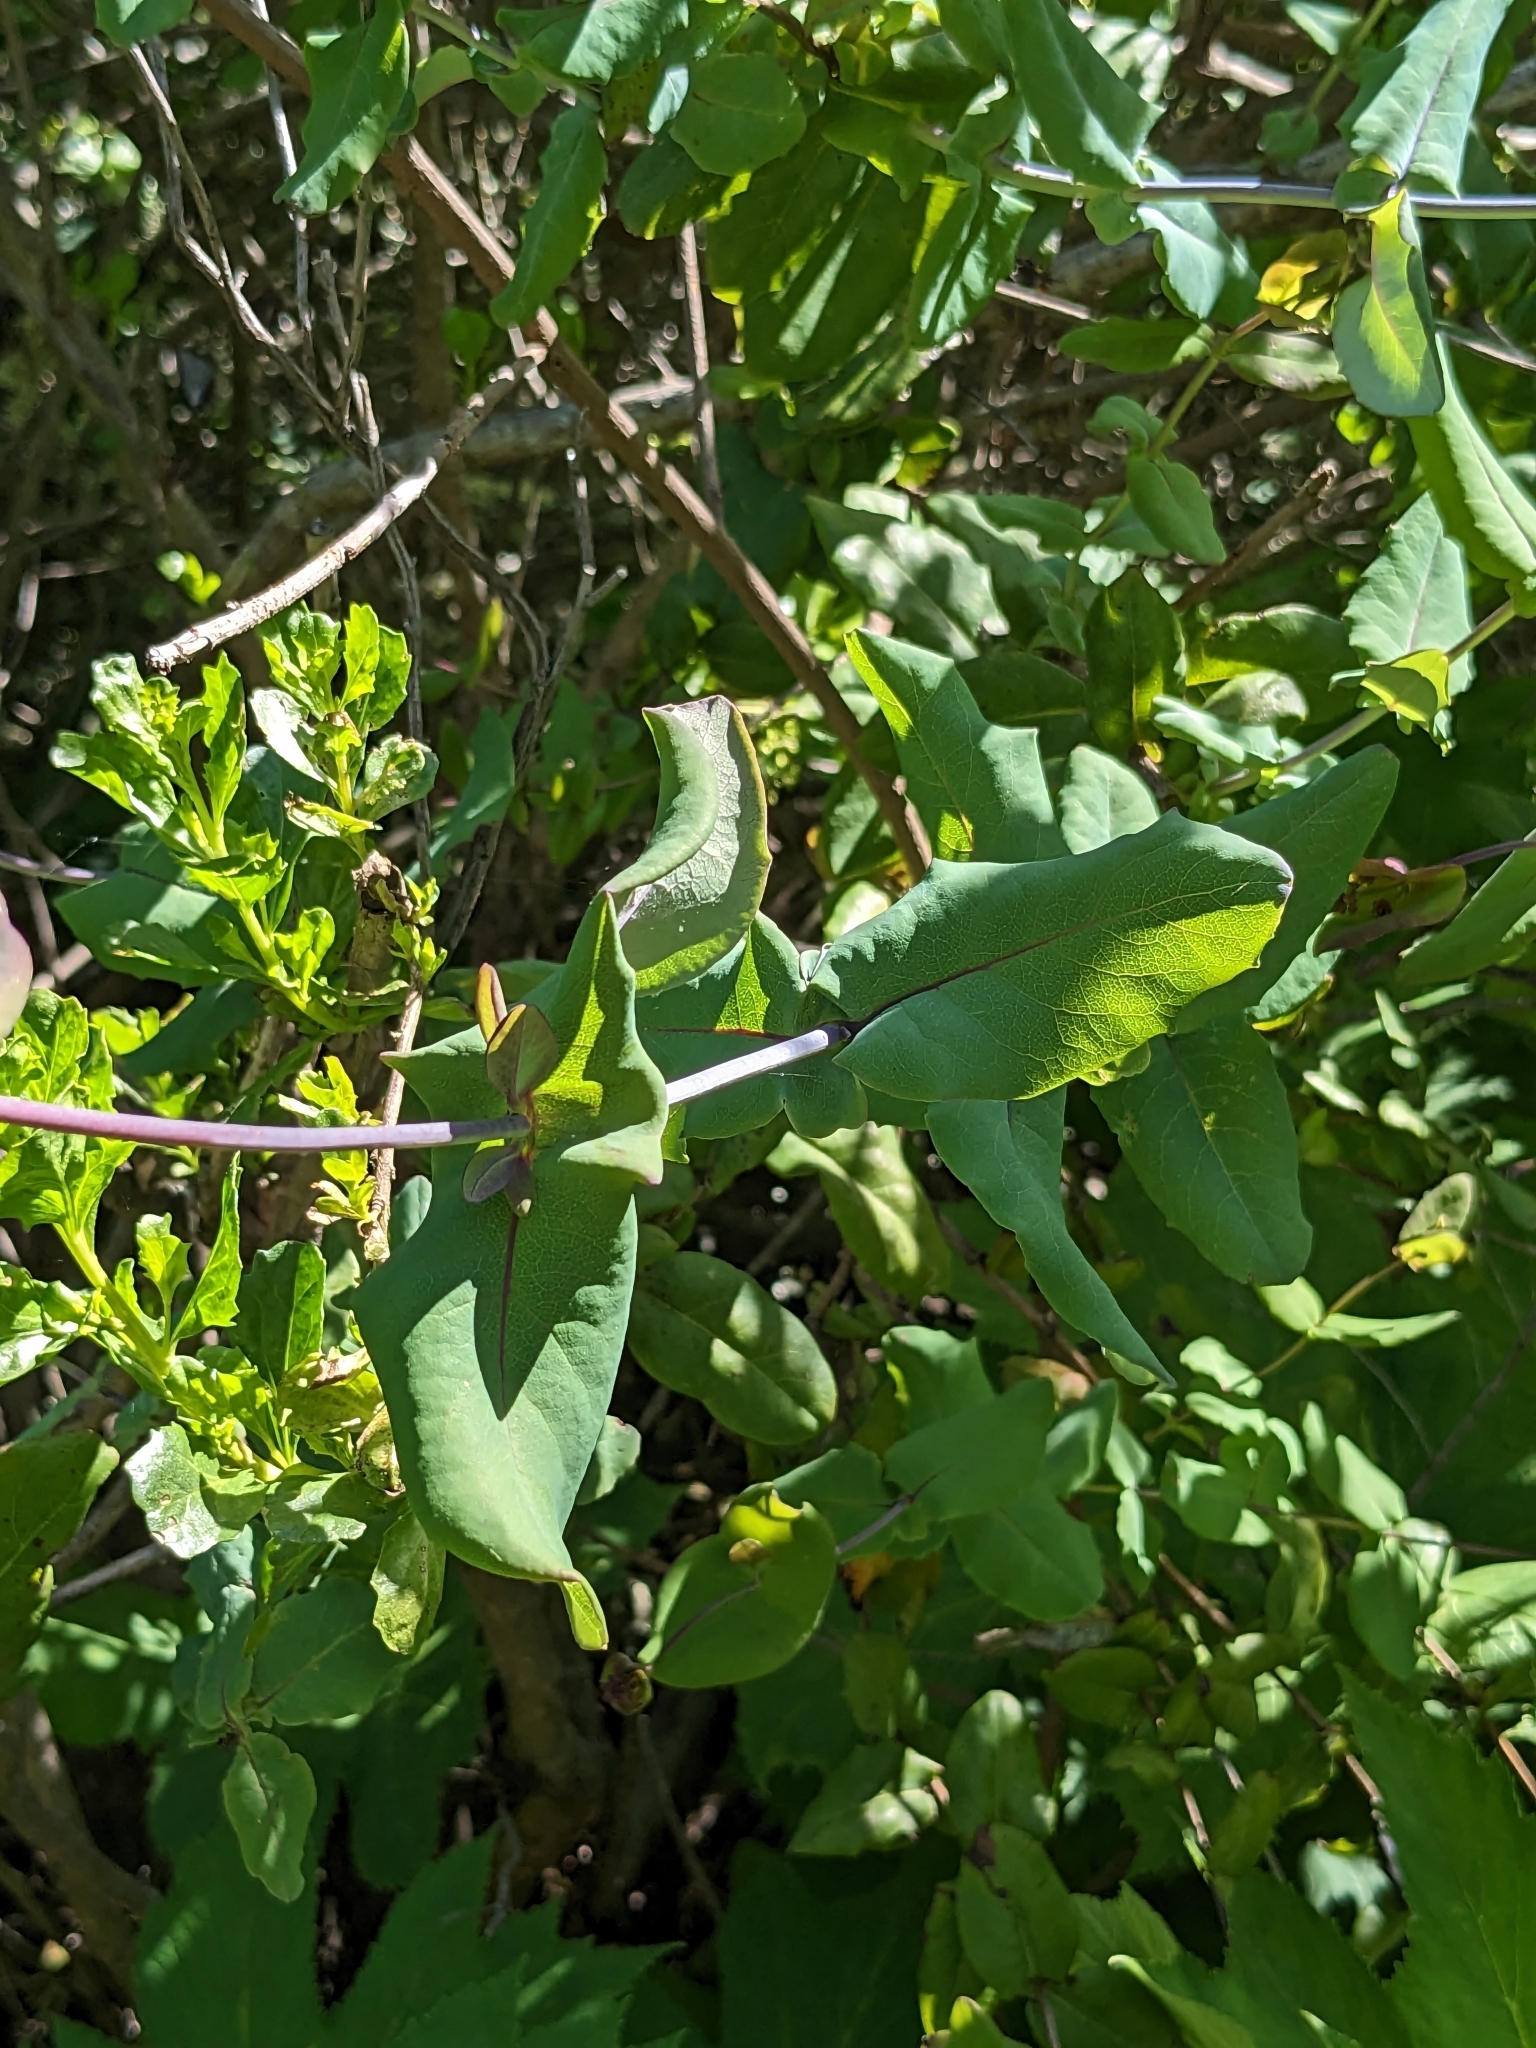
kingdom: Plantae
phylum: Tracheophyta
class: Magnoliopsida
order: Dipsacales
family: Caprifoliaceae
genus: Lonicera
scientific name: Lonicera hispidula
